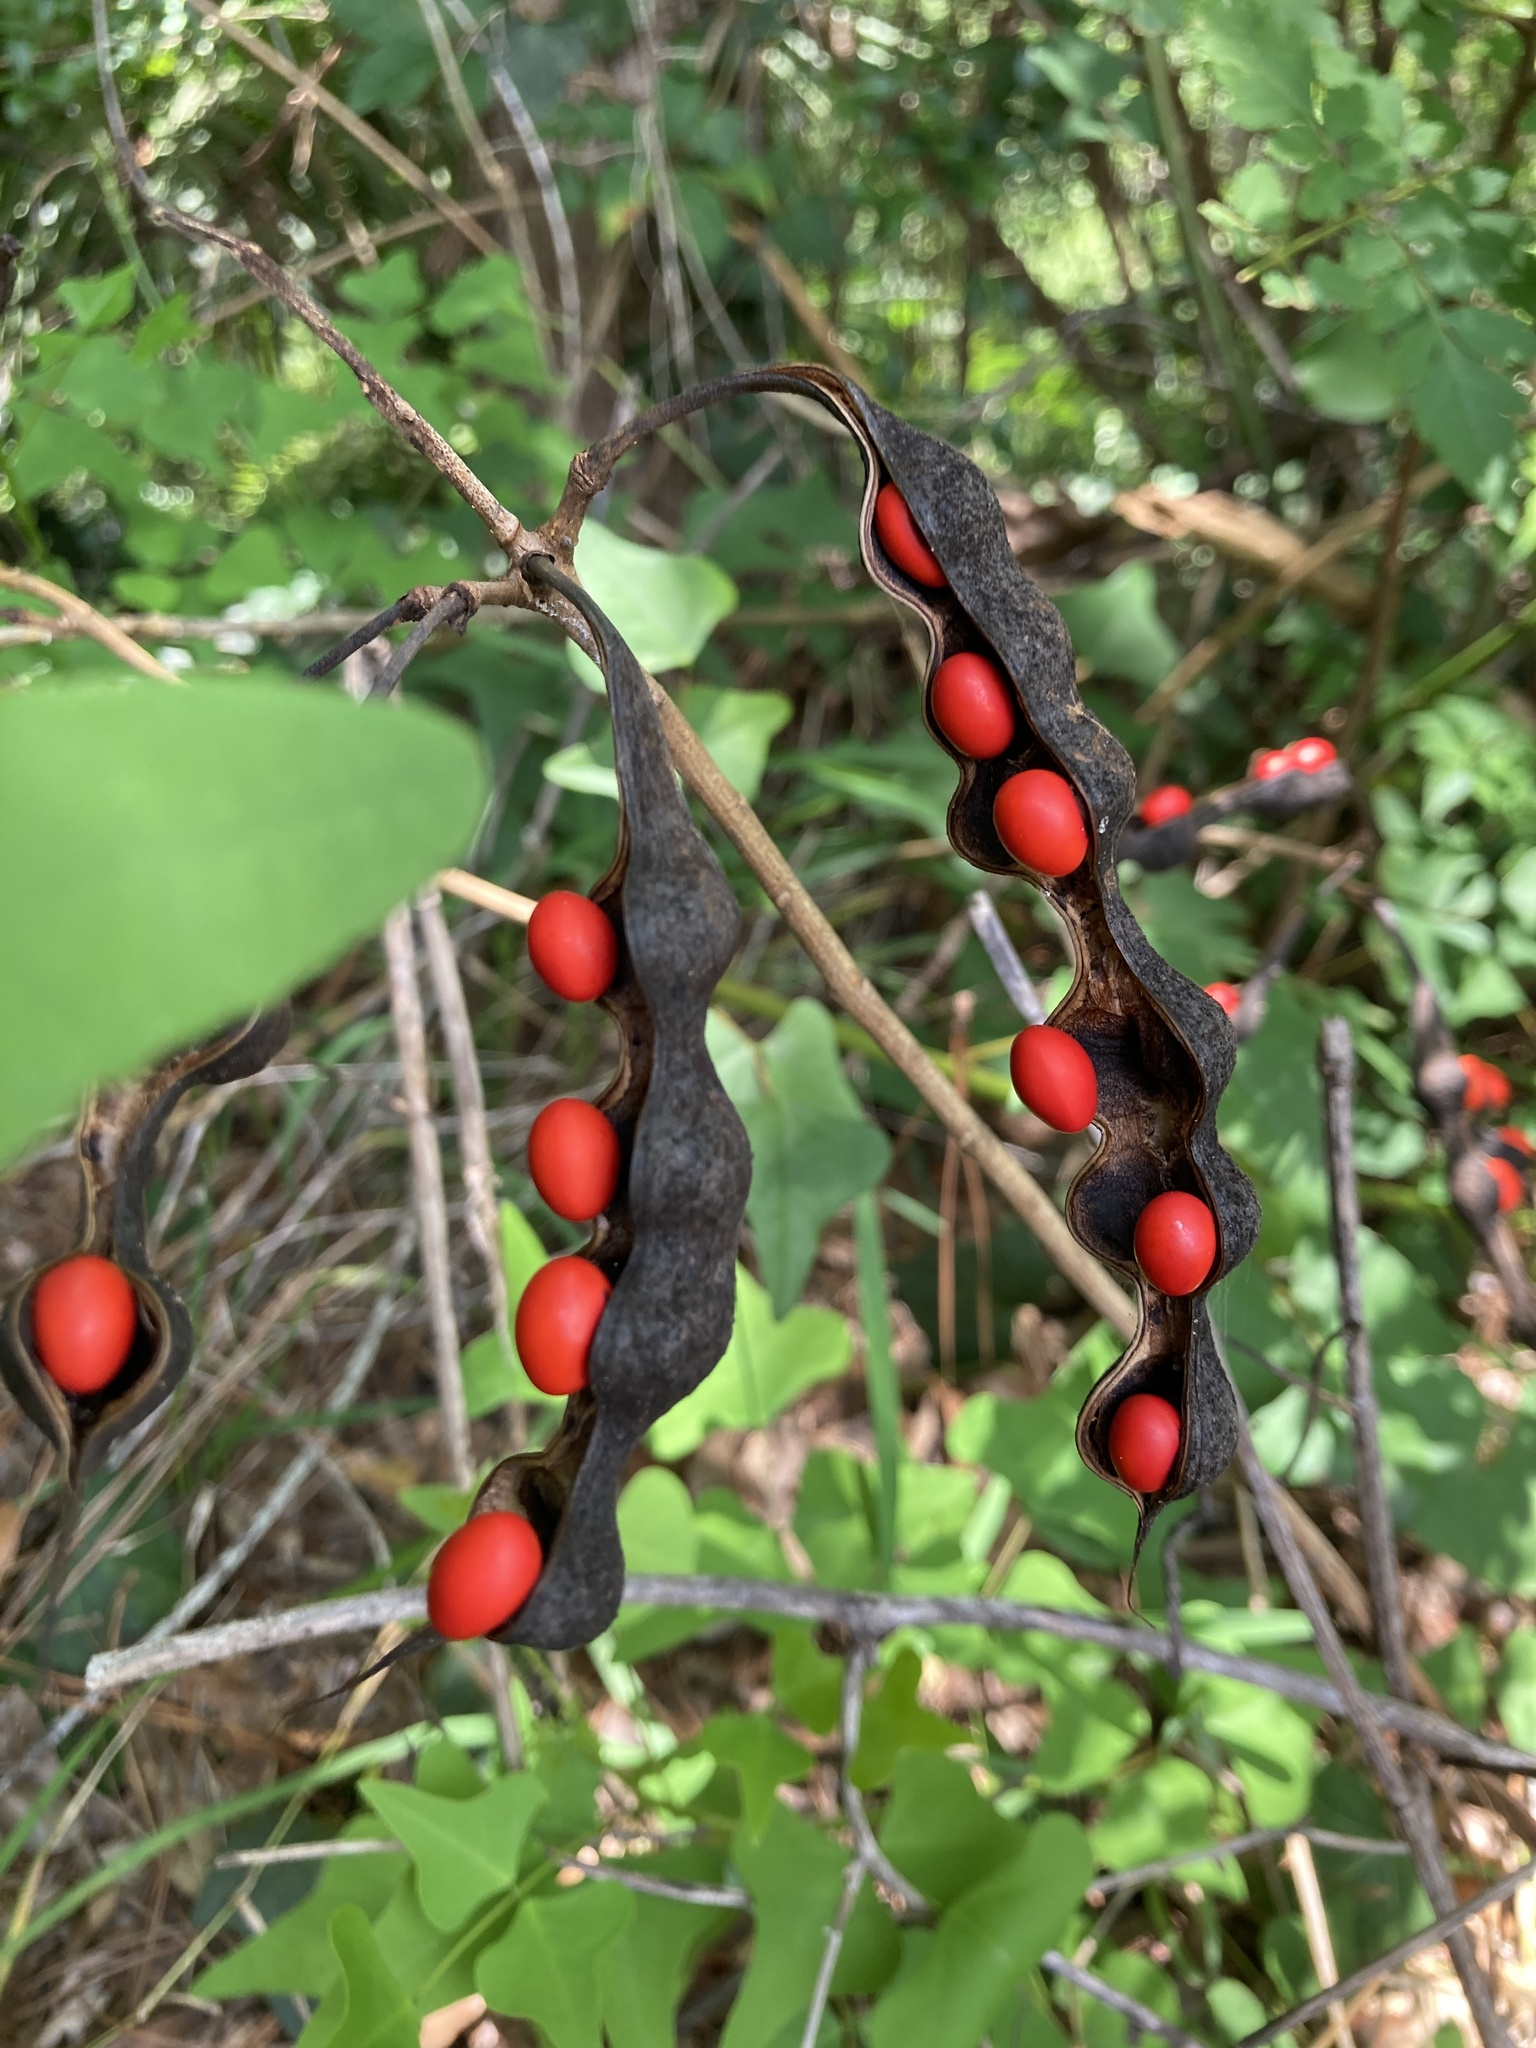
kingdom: Plantae
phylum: Tracheophyta
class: Magnoliopsida
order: Fabales
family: Fabaceae
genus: Erythrina
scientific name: Erythrina herbacea
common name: Coral-bean
